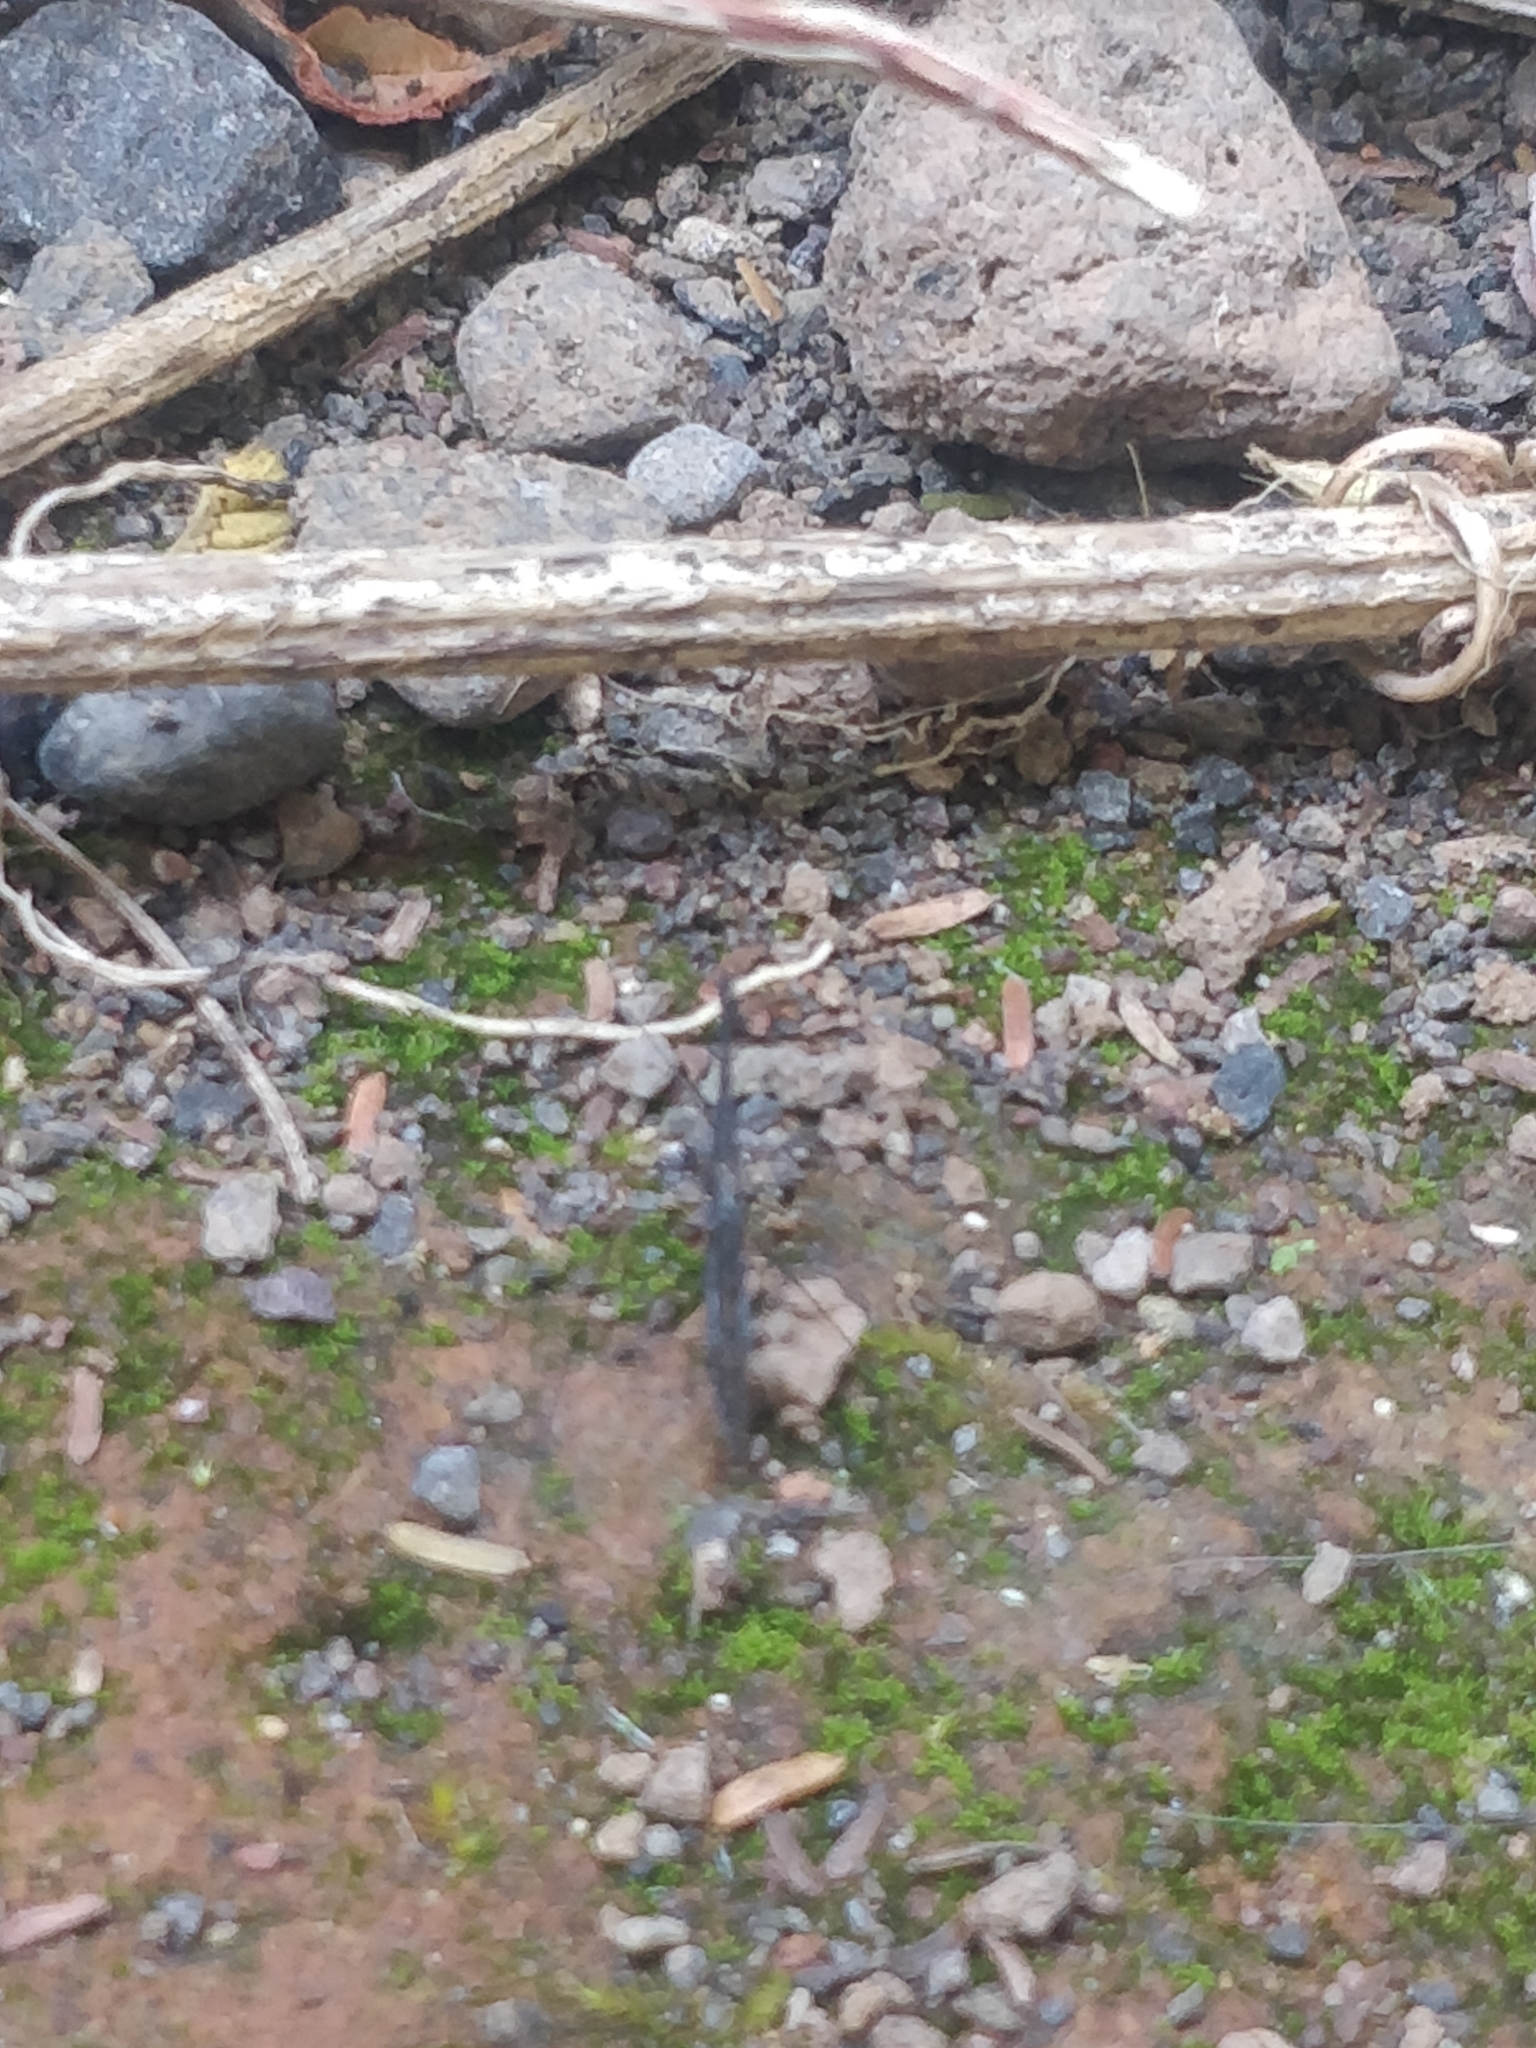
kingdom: Animalia
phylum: Arthropoda
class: Insecta
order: Hemiptera
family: Hydrometridae
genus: Hydrometra
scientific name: Hydrometra stagnorum
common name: Water measurer
